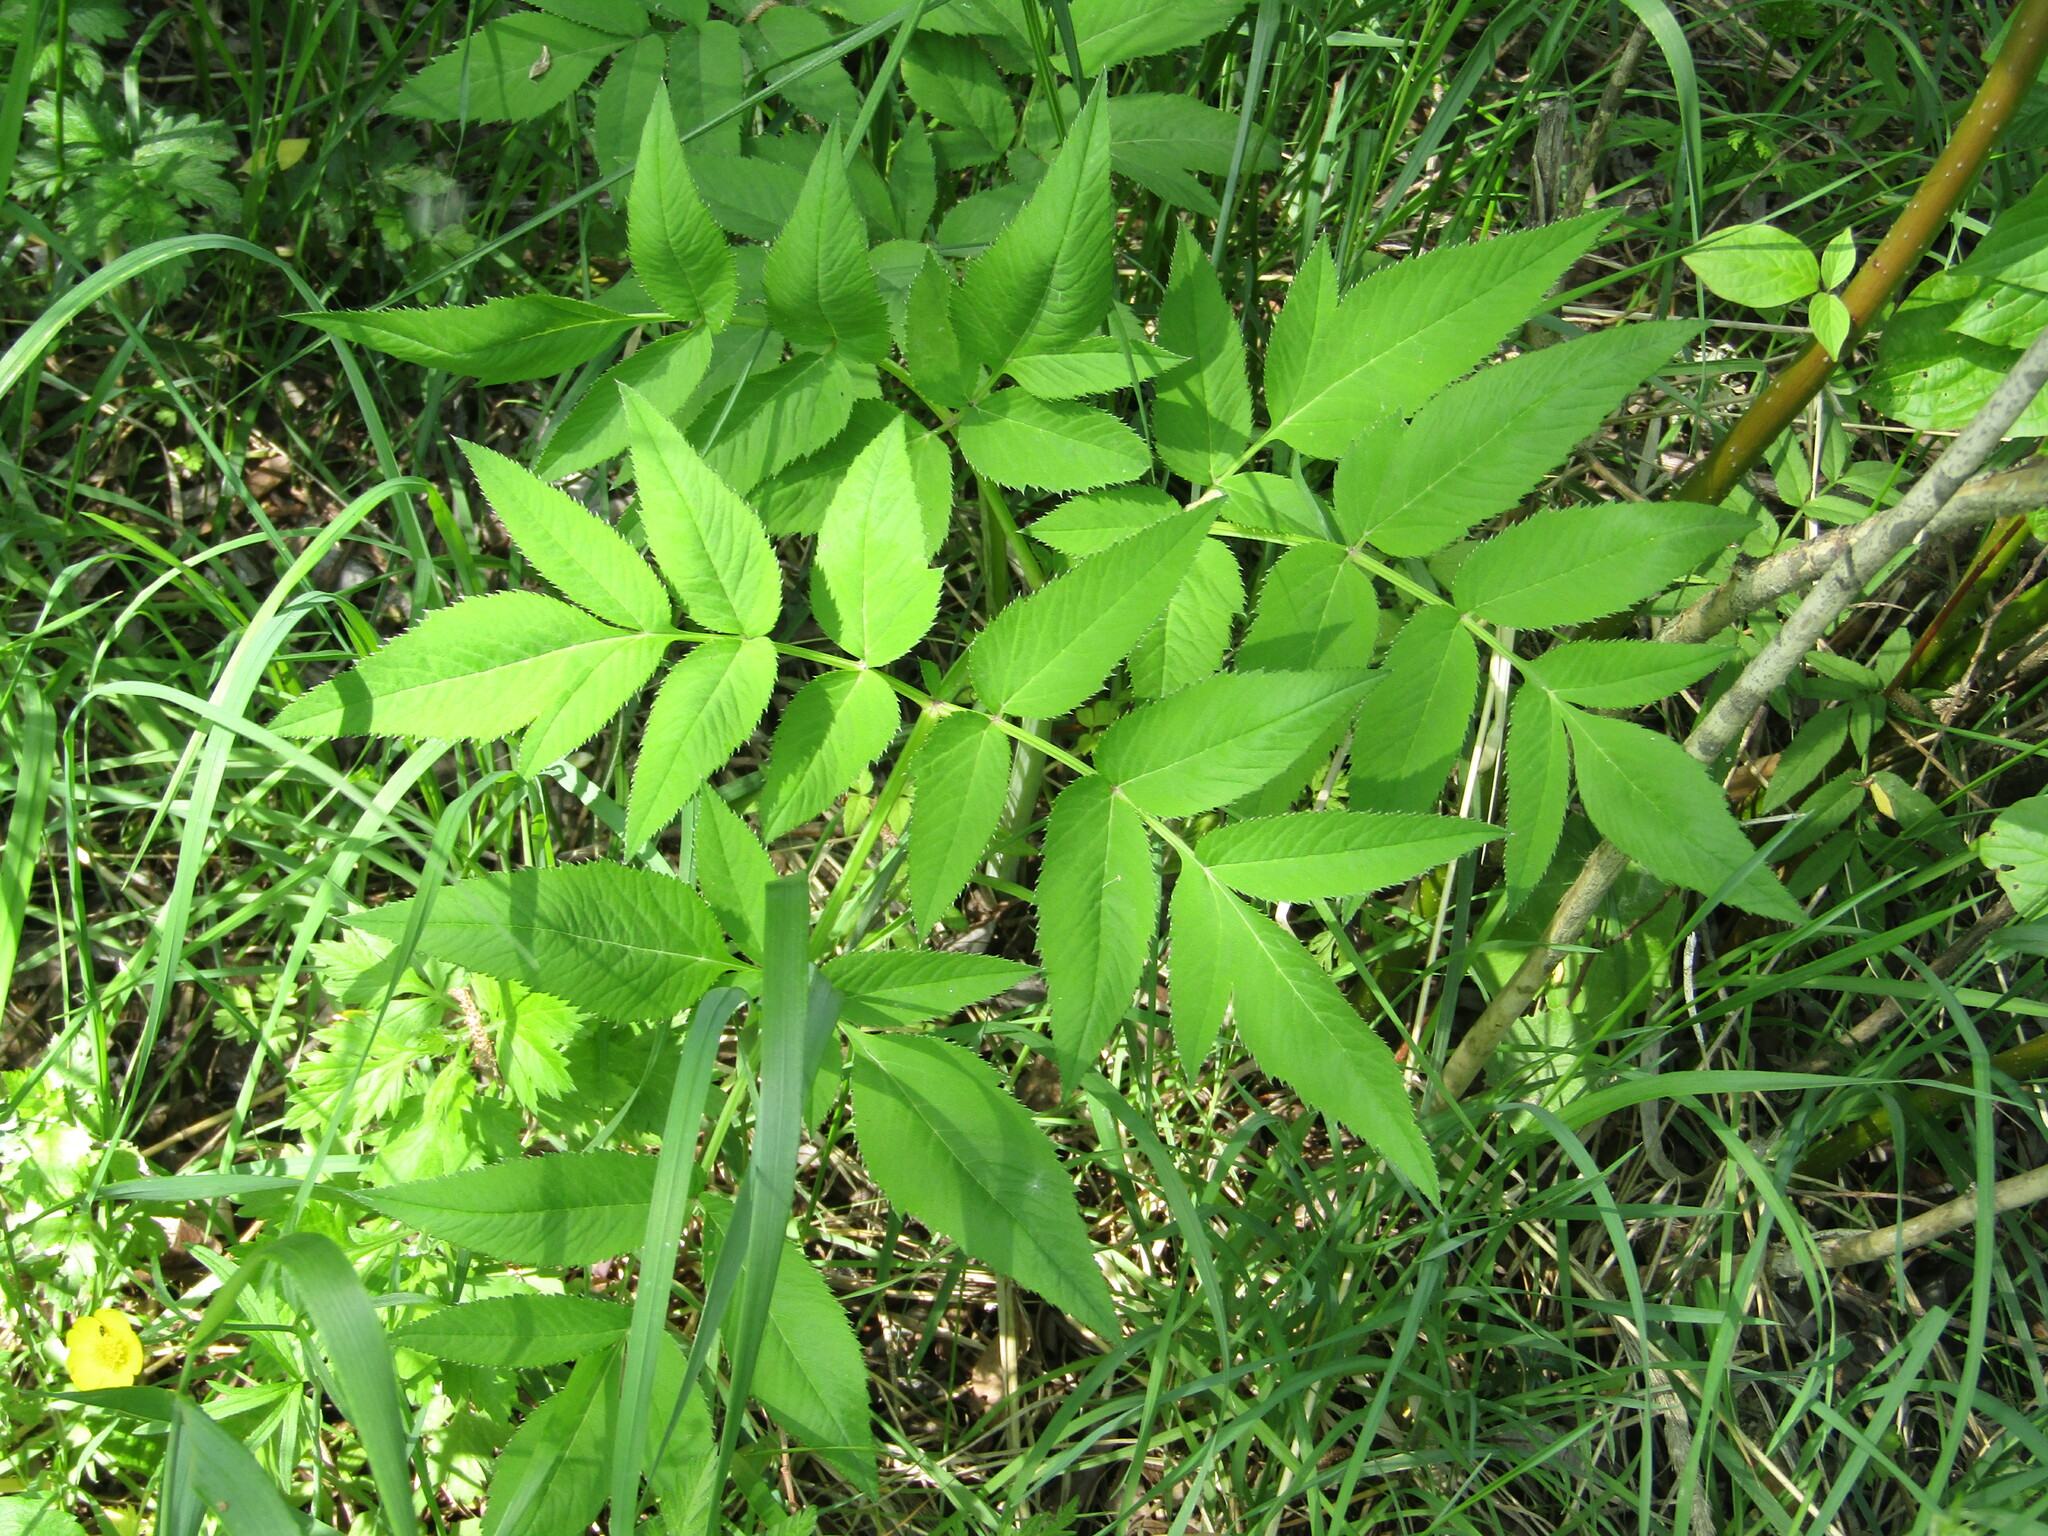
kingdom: Plantae
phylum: Tracheophyta
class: Magnoliopsida
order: Apiales
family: Apiaceae
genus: Angelica
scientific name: Angelica sylvestris
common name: Wild angelica
